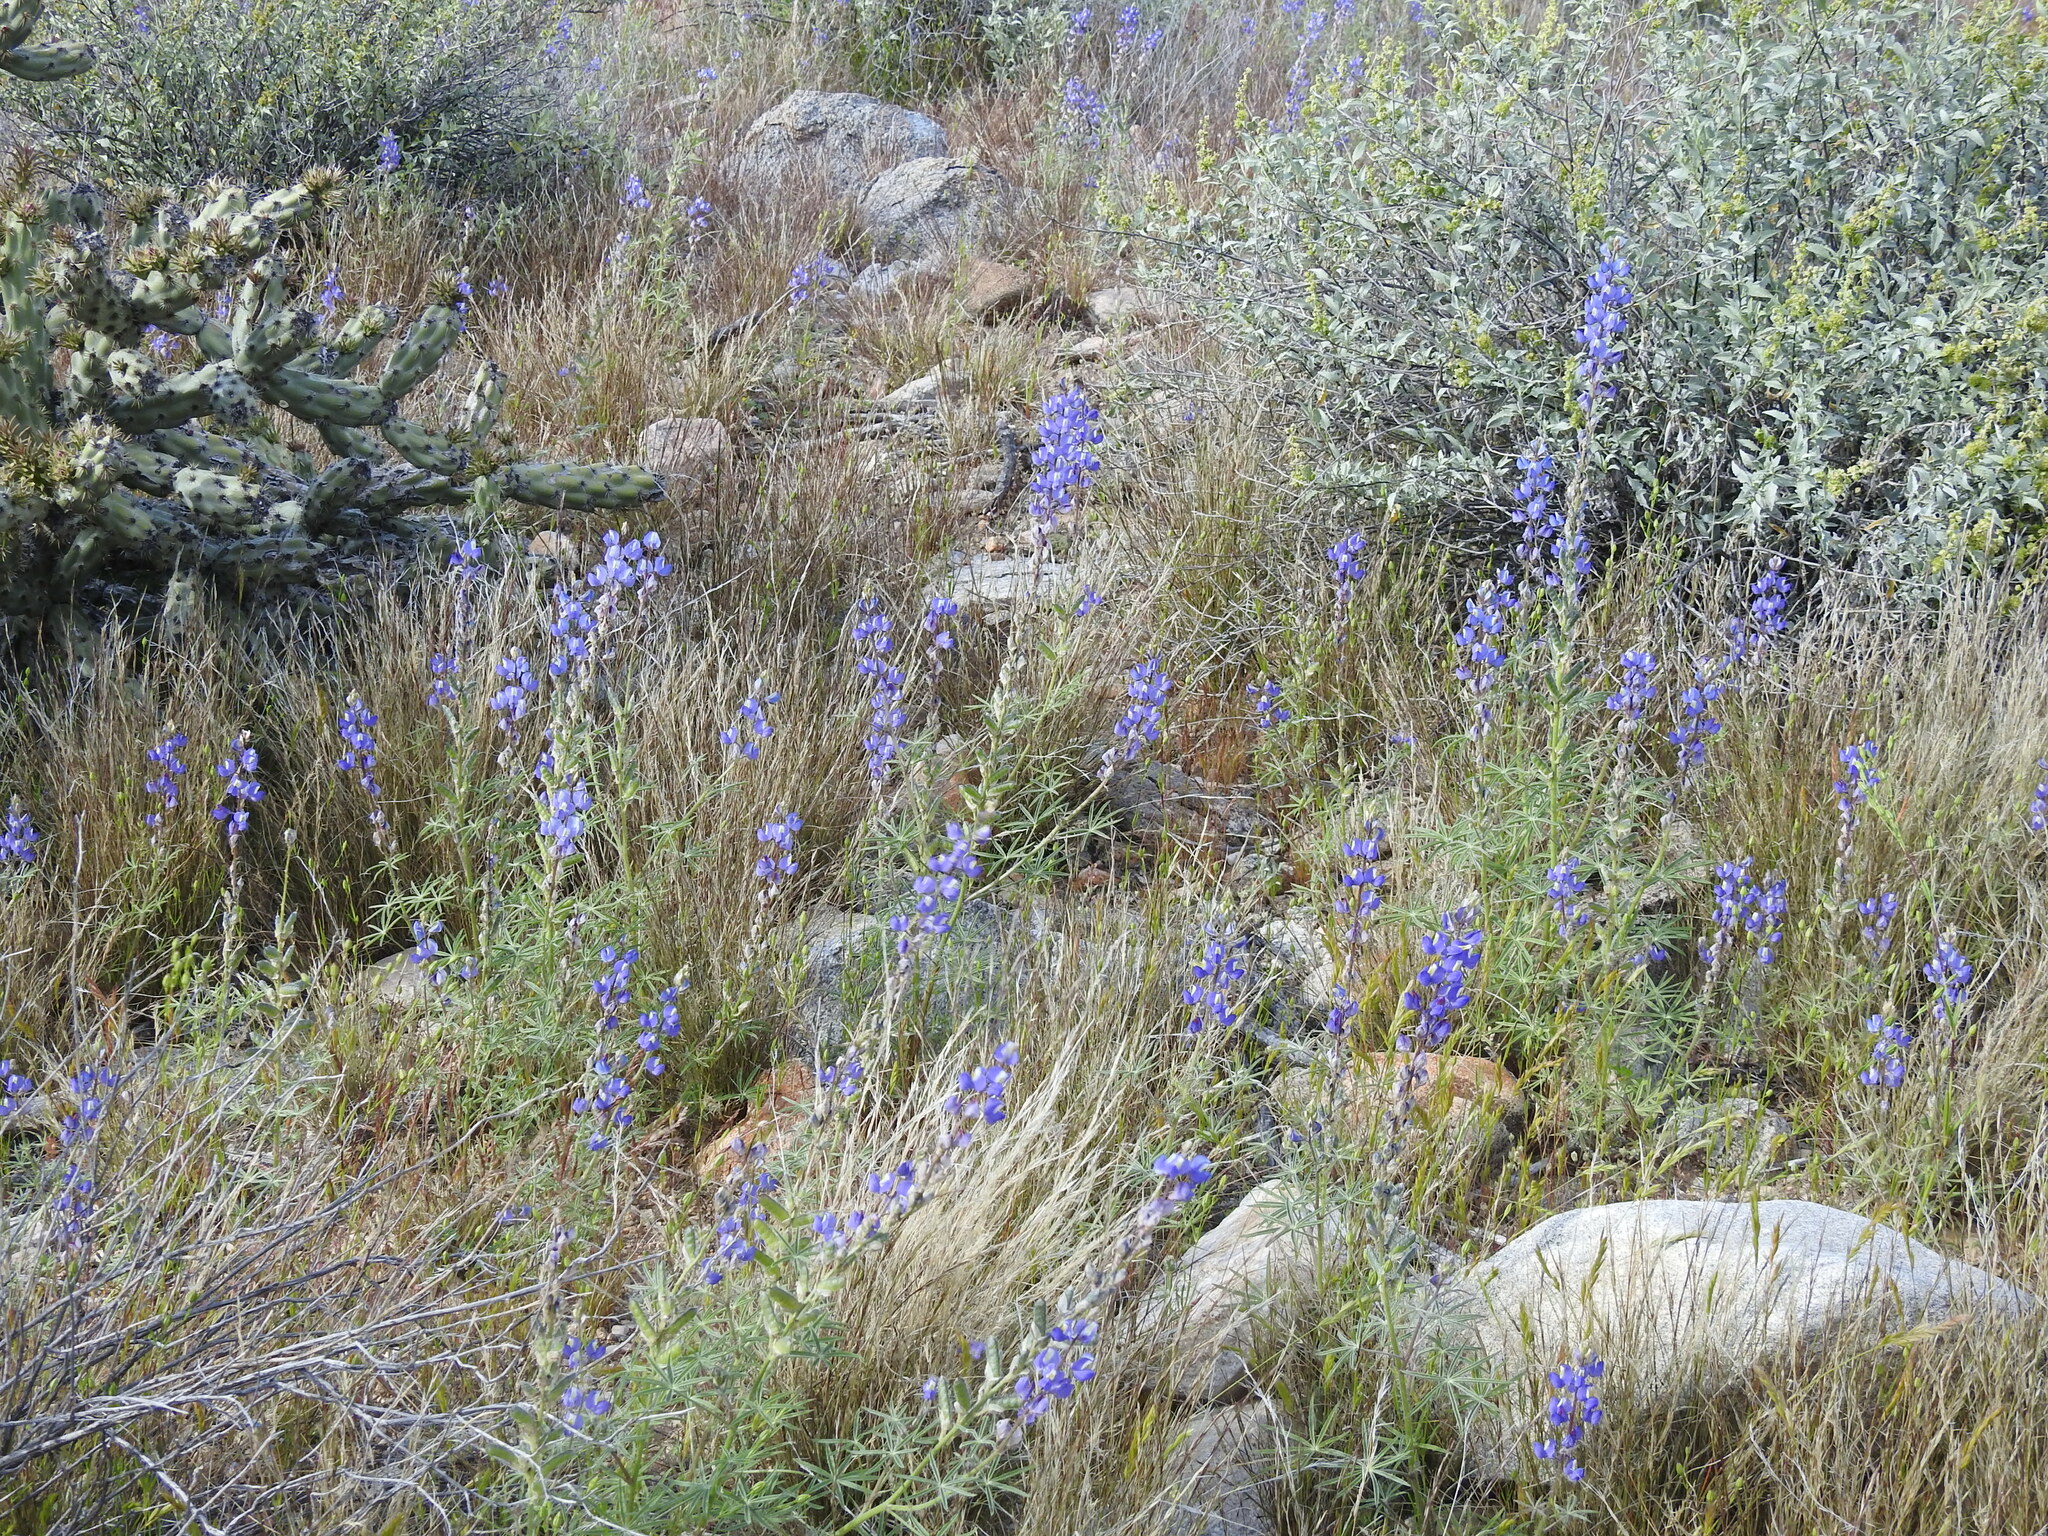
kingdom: Plantae
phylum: Tracheophyta
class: Magnoliopsida
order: Fabales
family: Fabaceae
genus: Lupinus
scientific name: Lupinus sparsiflorus
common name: Coulter's lupine
